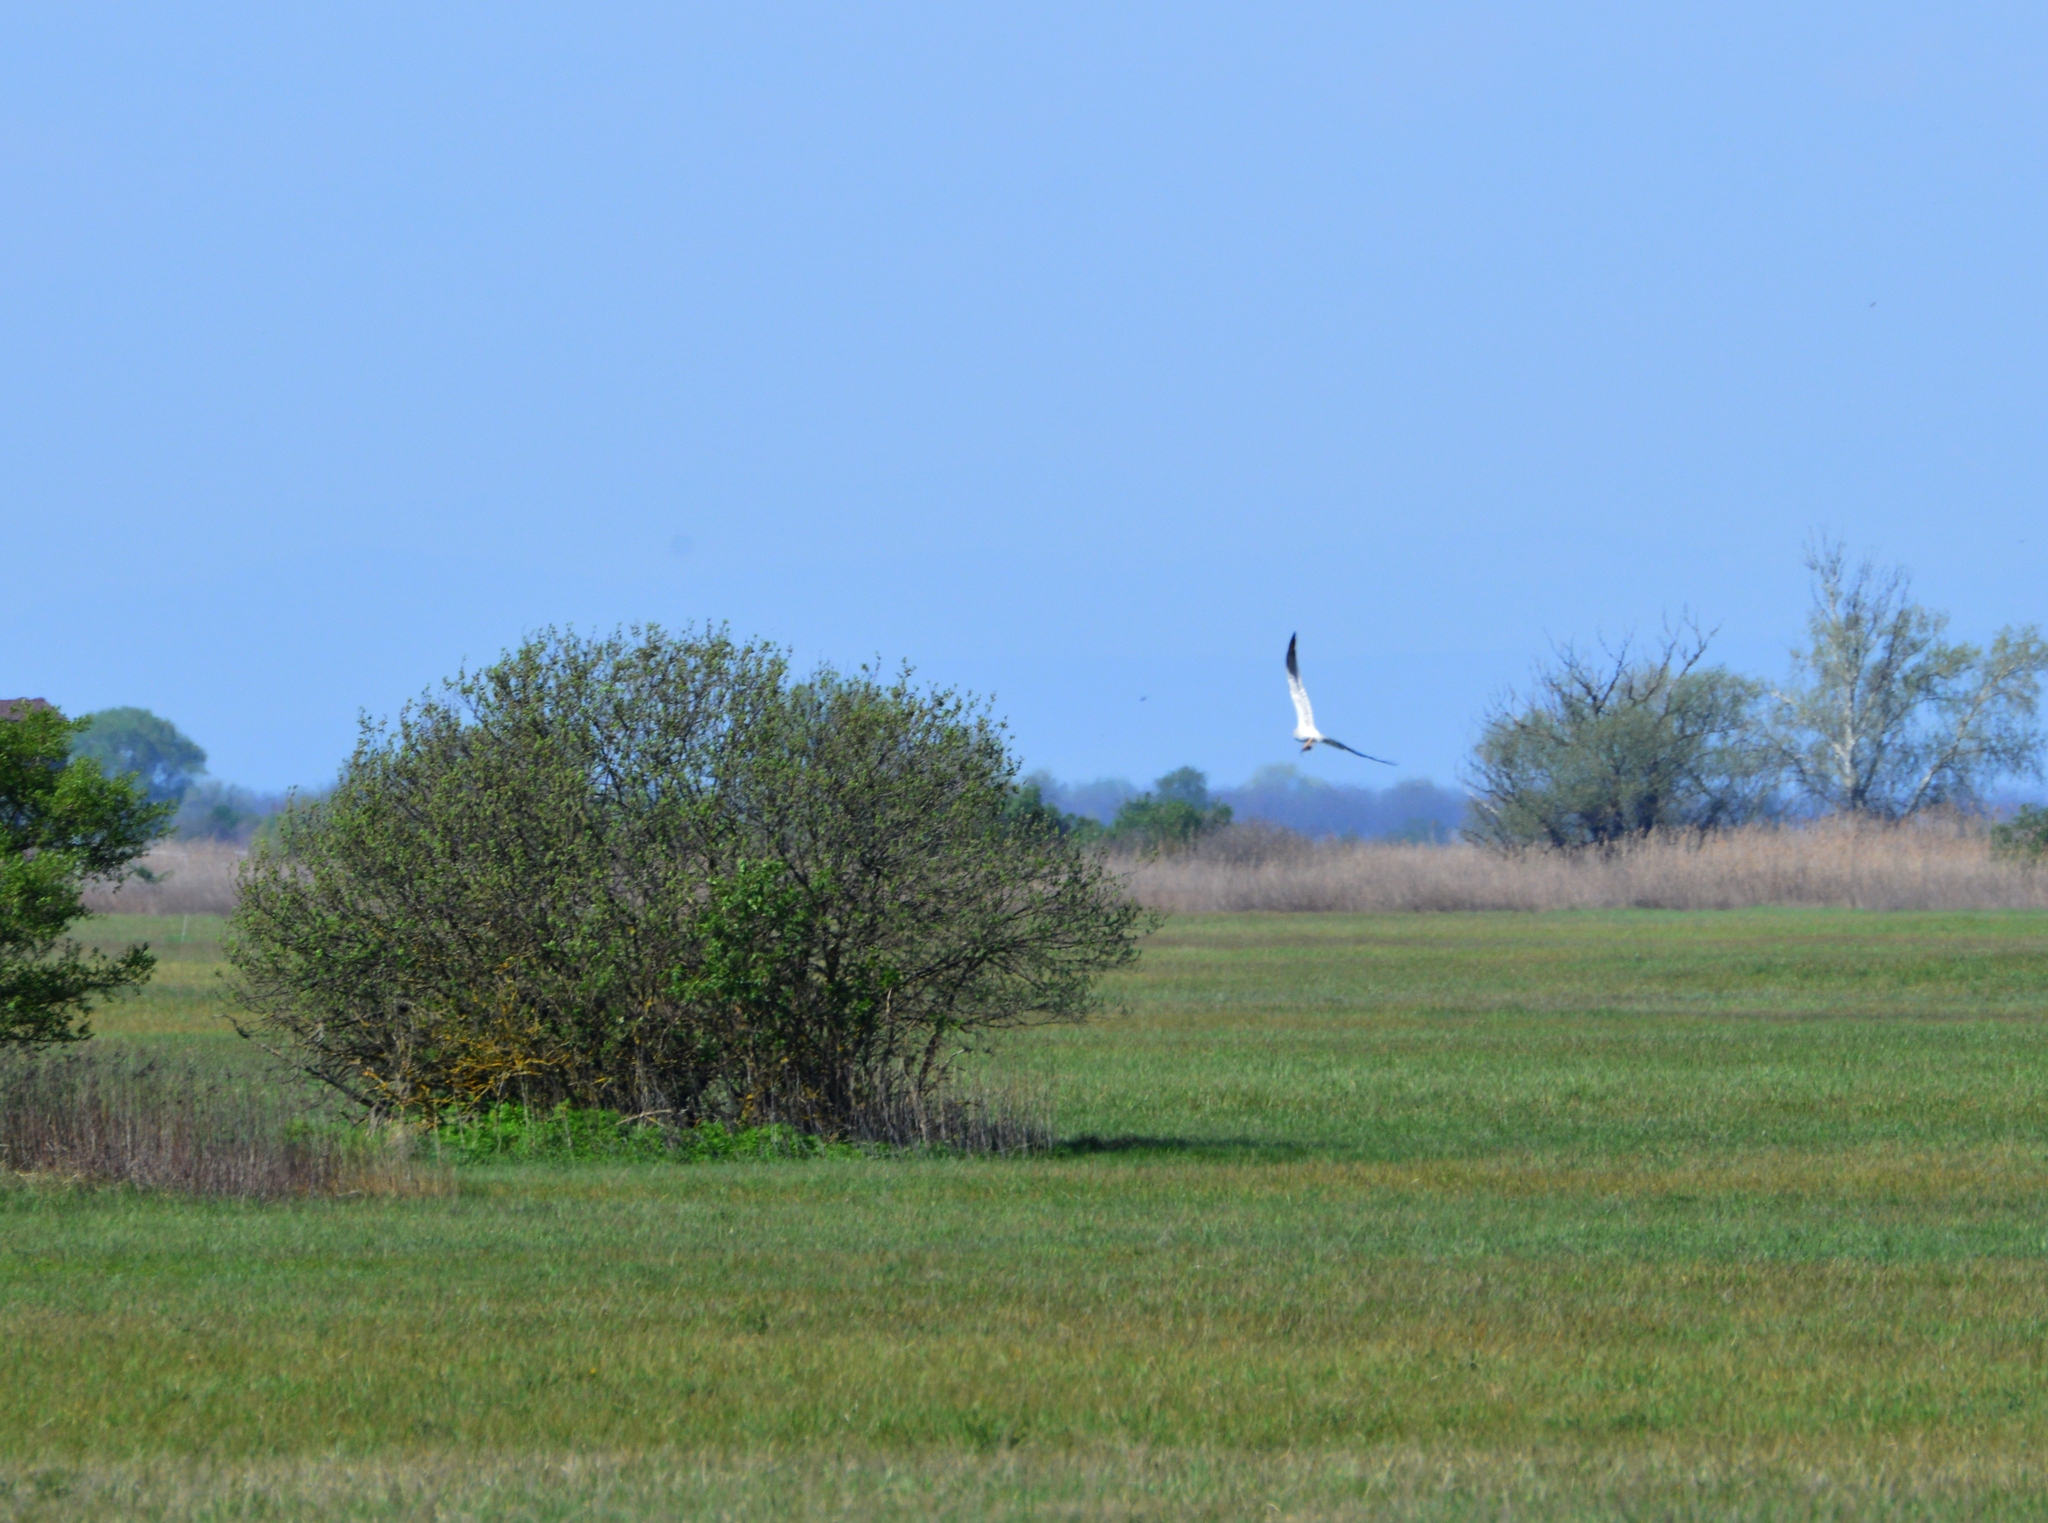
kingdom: Animalia
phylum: Chordata
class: Aves
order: Accipitriformes
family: Accipitridae
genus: Circus
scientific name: Circus pygargus
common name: Montagu's harrier
